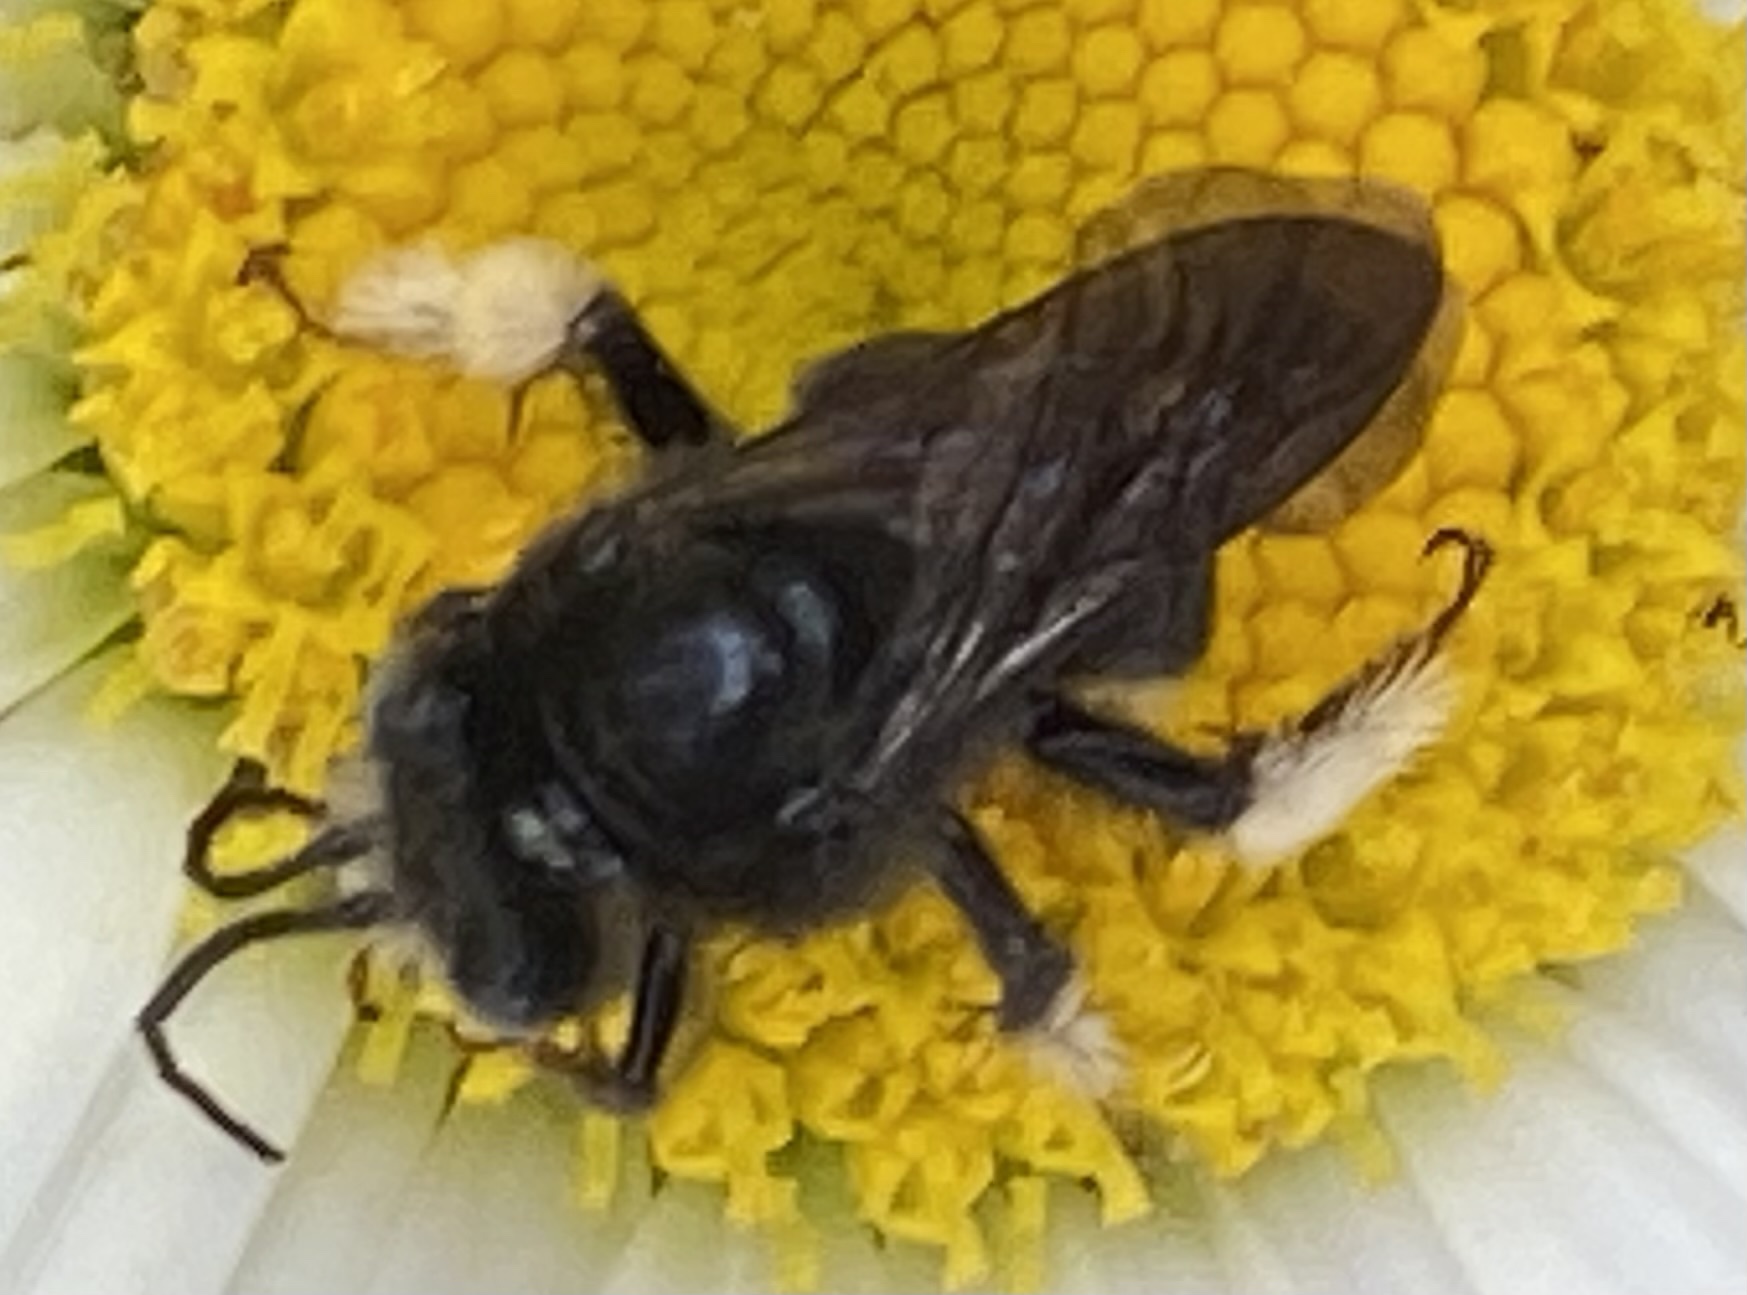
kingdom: Animalia
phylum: Arthropoda
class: Insecta
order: Hymenoptera
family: Apidae
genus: Melissodes
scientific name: Melissodes bimaculatus
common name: Two-spotted long-horned bee
